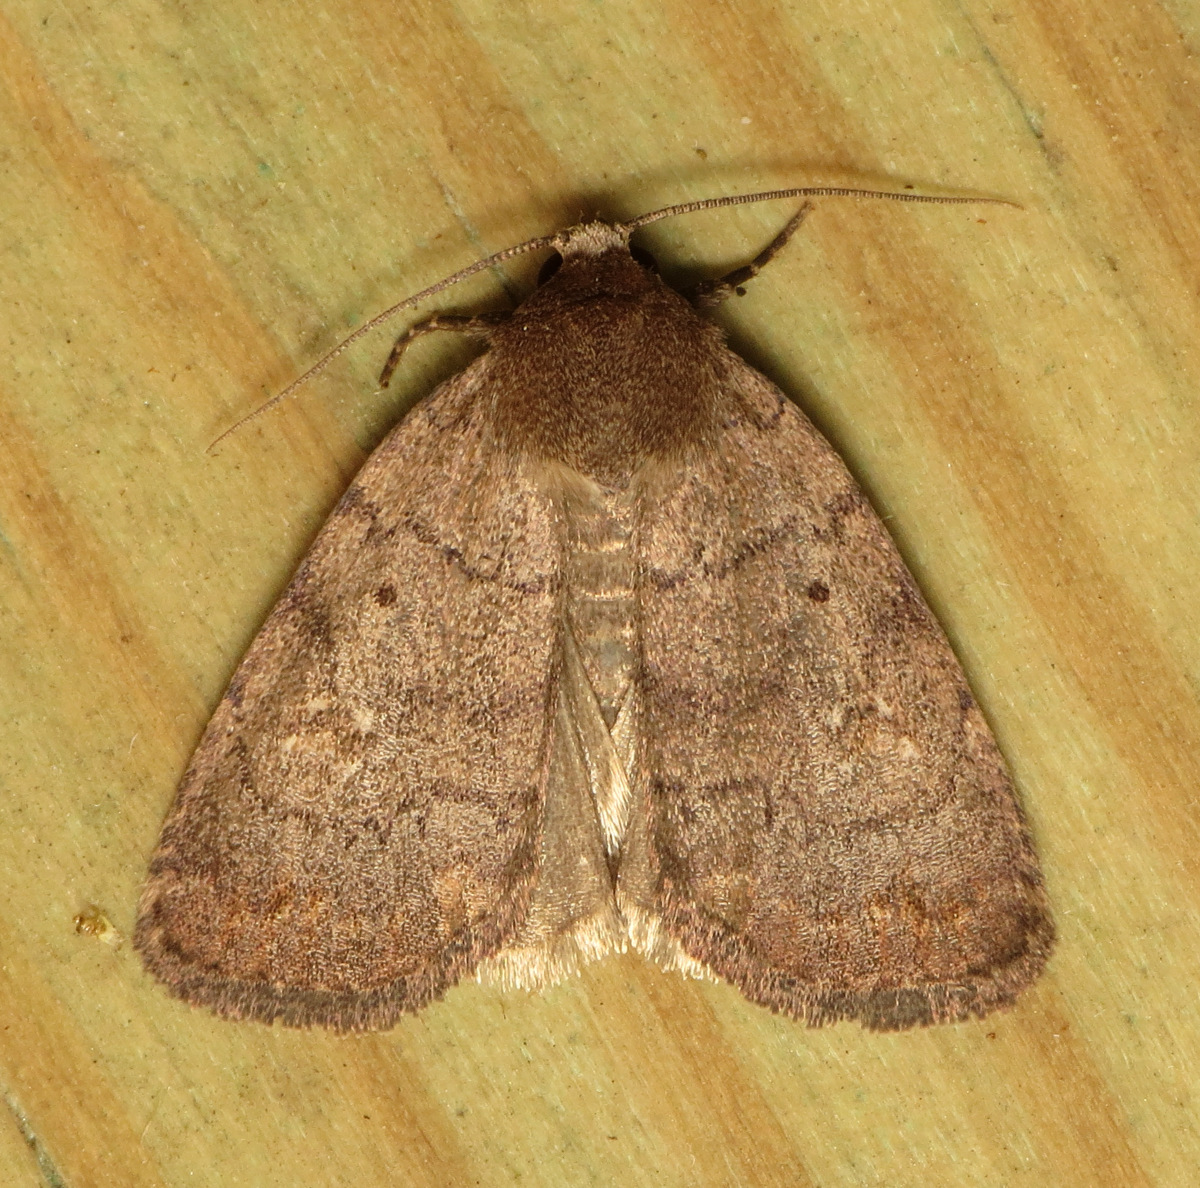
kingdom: Animalia
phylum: Arthropoda
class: Insecta
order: Lepidoptera
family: Noctuidae
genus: Athetis
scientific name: Athetis tarda
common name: Slowpoke moth
